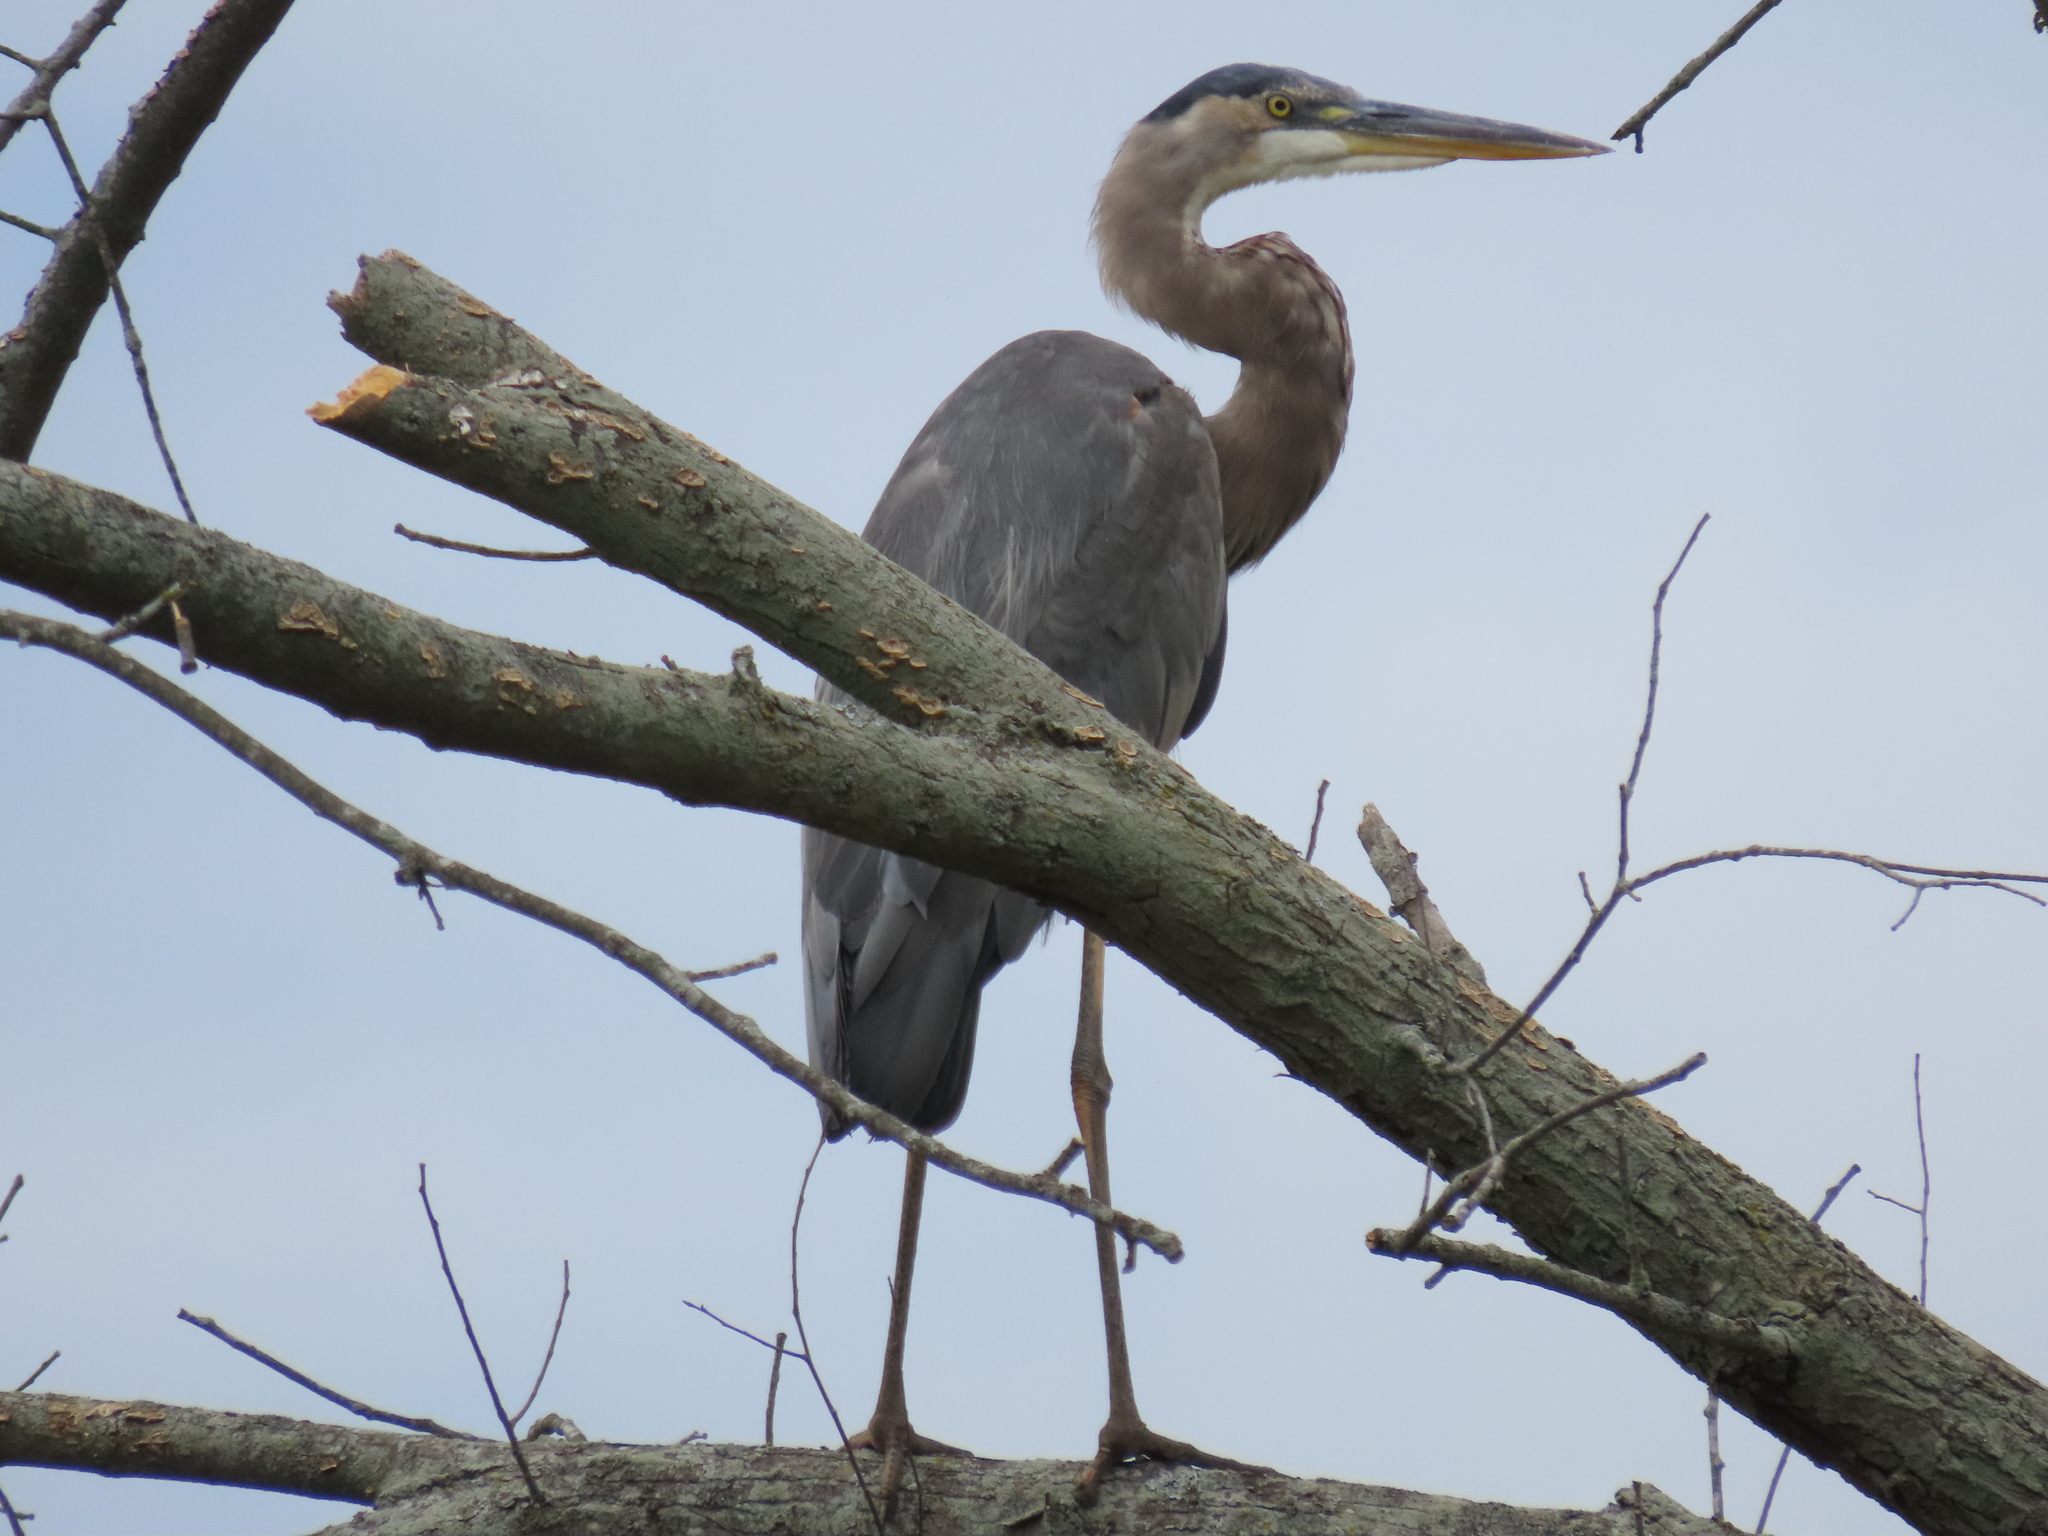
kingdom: Animalia
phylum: Chordata
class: Aves
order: Pelecaniformes
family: Ardeidae
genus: Ardea
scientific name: Ardea herodias
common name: Great blue heron
